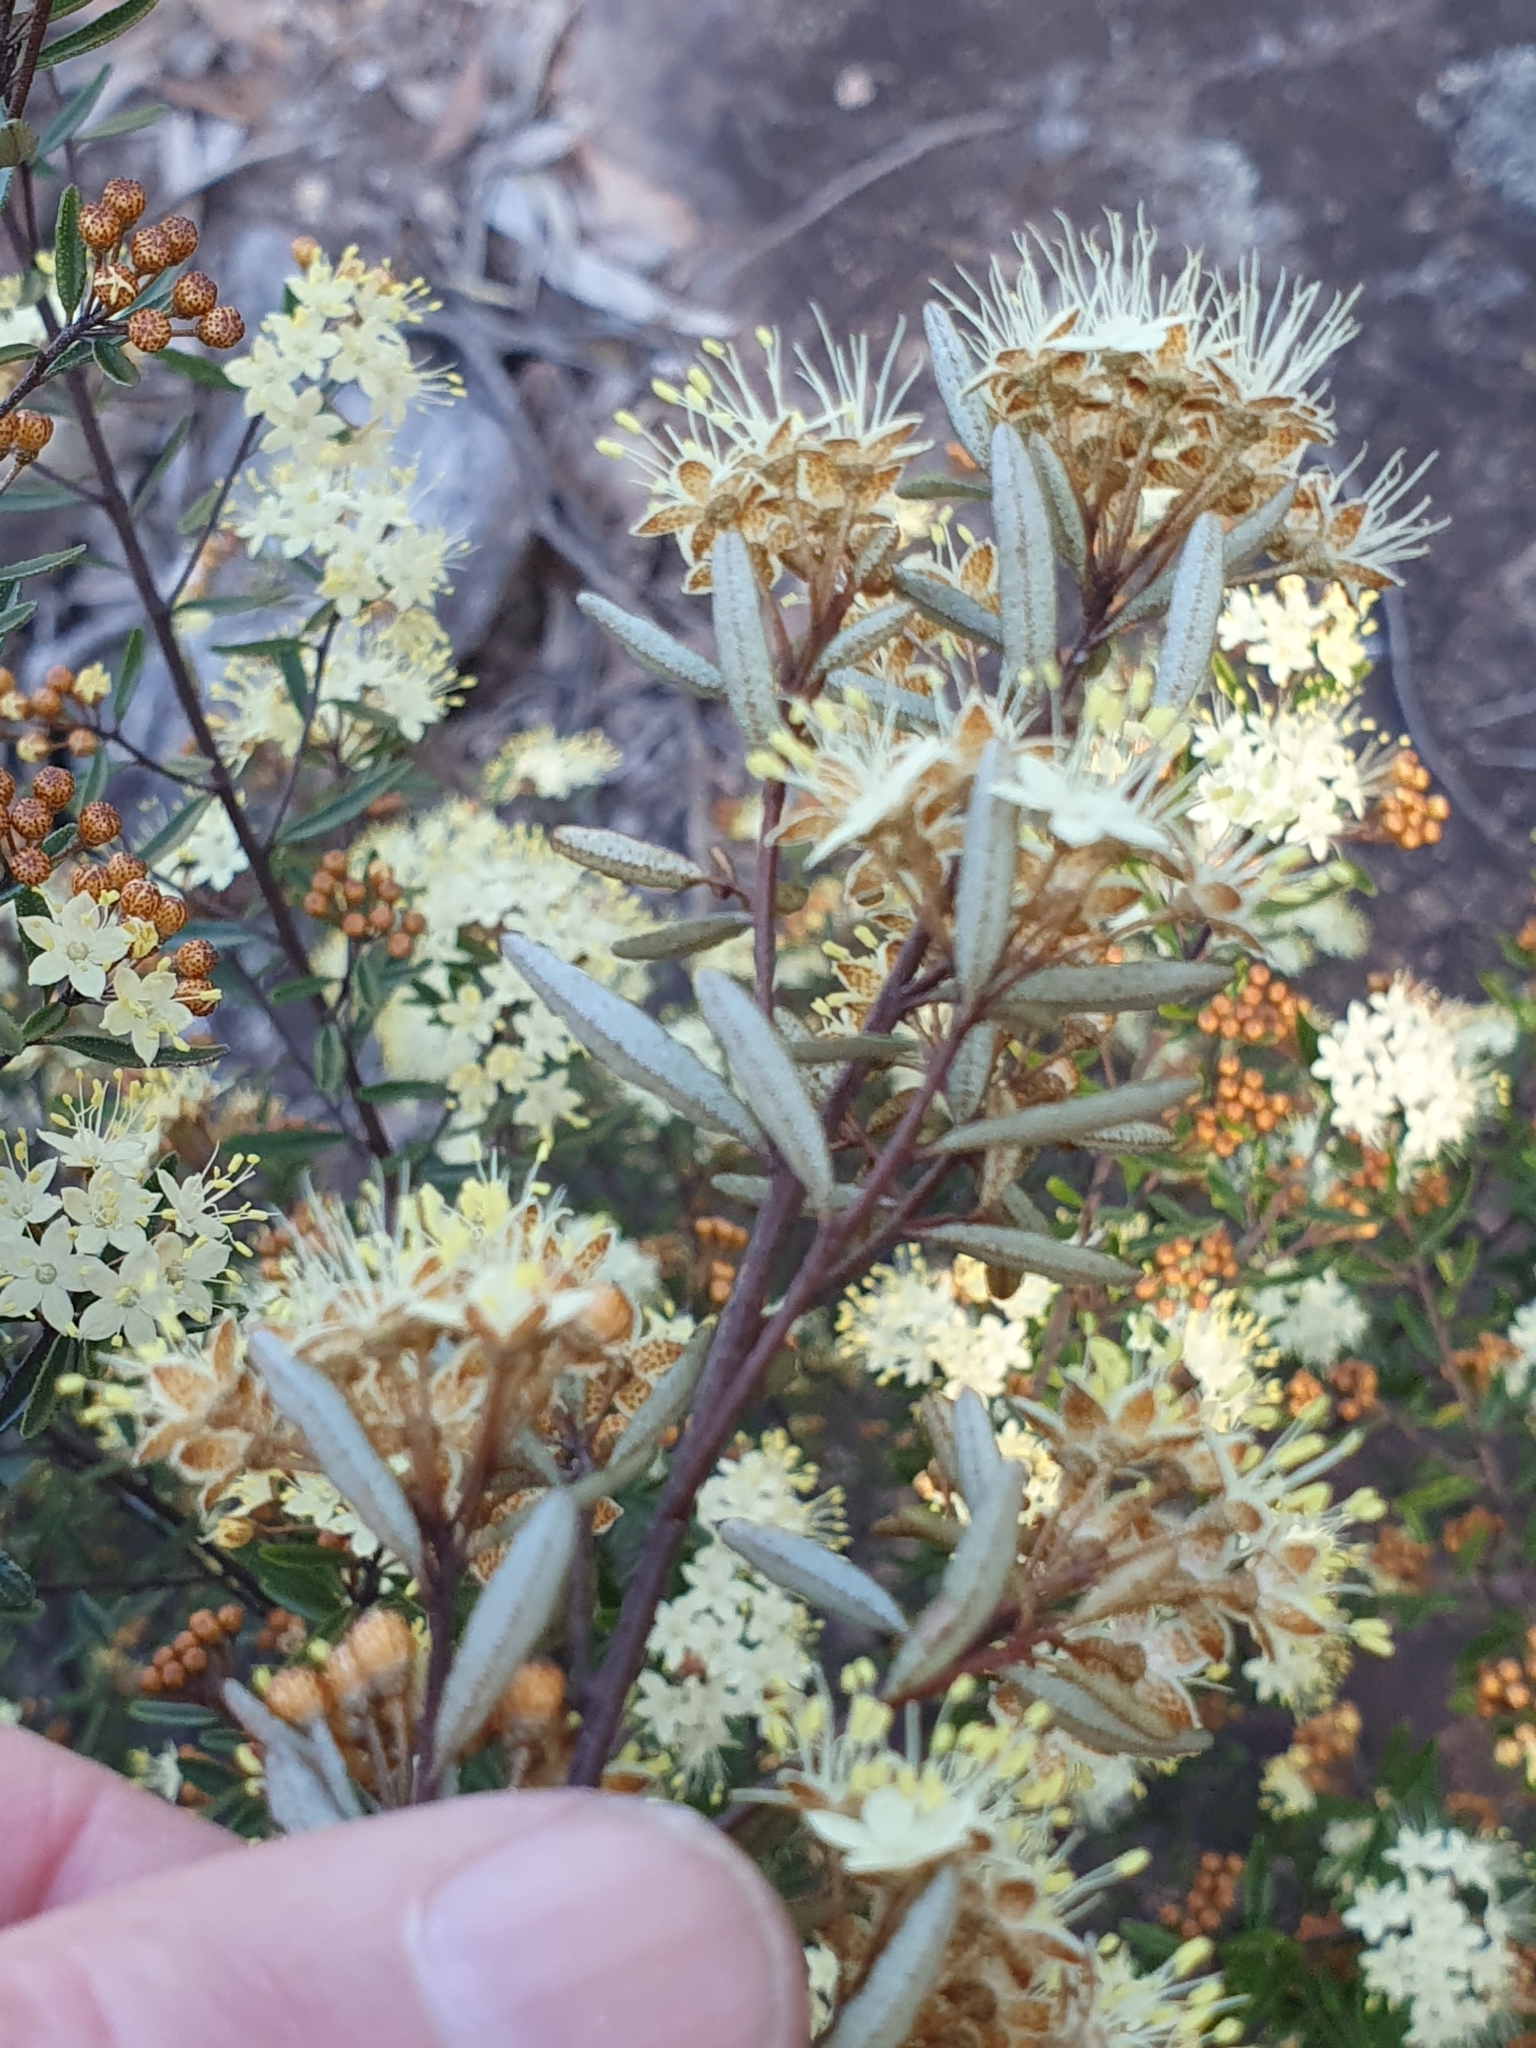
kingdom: Plantae
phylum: Tracheophyta
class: Magnoliopsida
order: Sapindales
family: Rutaceae
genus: Phebalium
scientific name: Phebalium squamulosum
